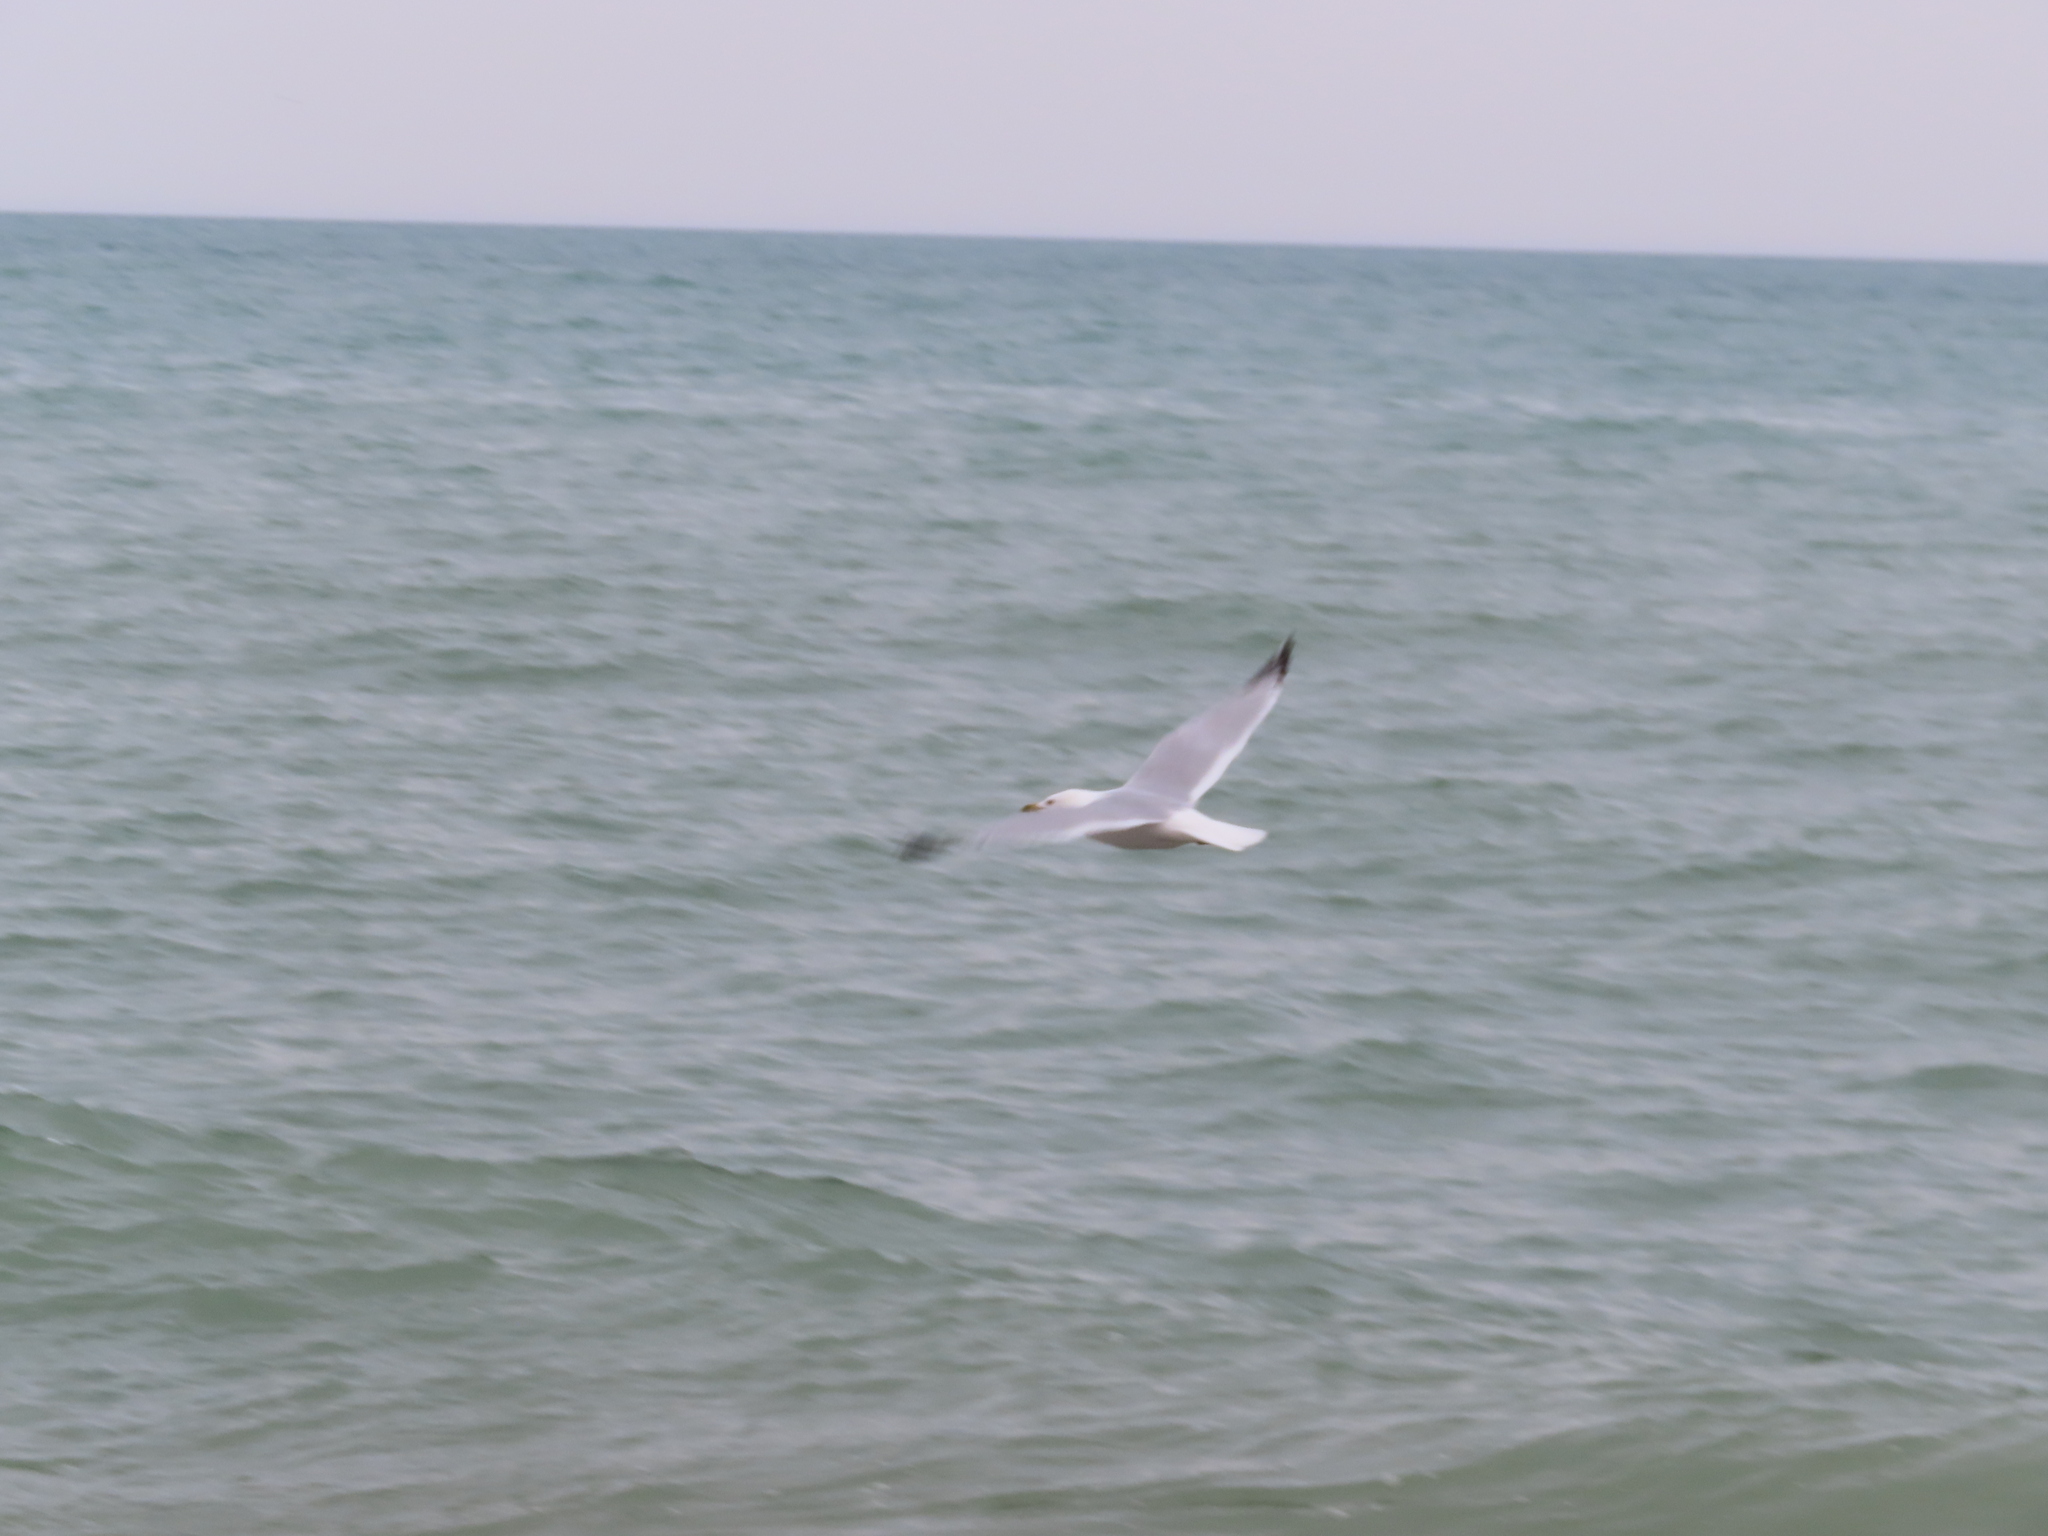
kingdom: Animalia
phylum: Chordata
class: Aves
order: Charadriiformes
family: Laridae
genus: Larus
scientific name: Larus delawarensis
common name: Ring-billed gull
